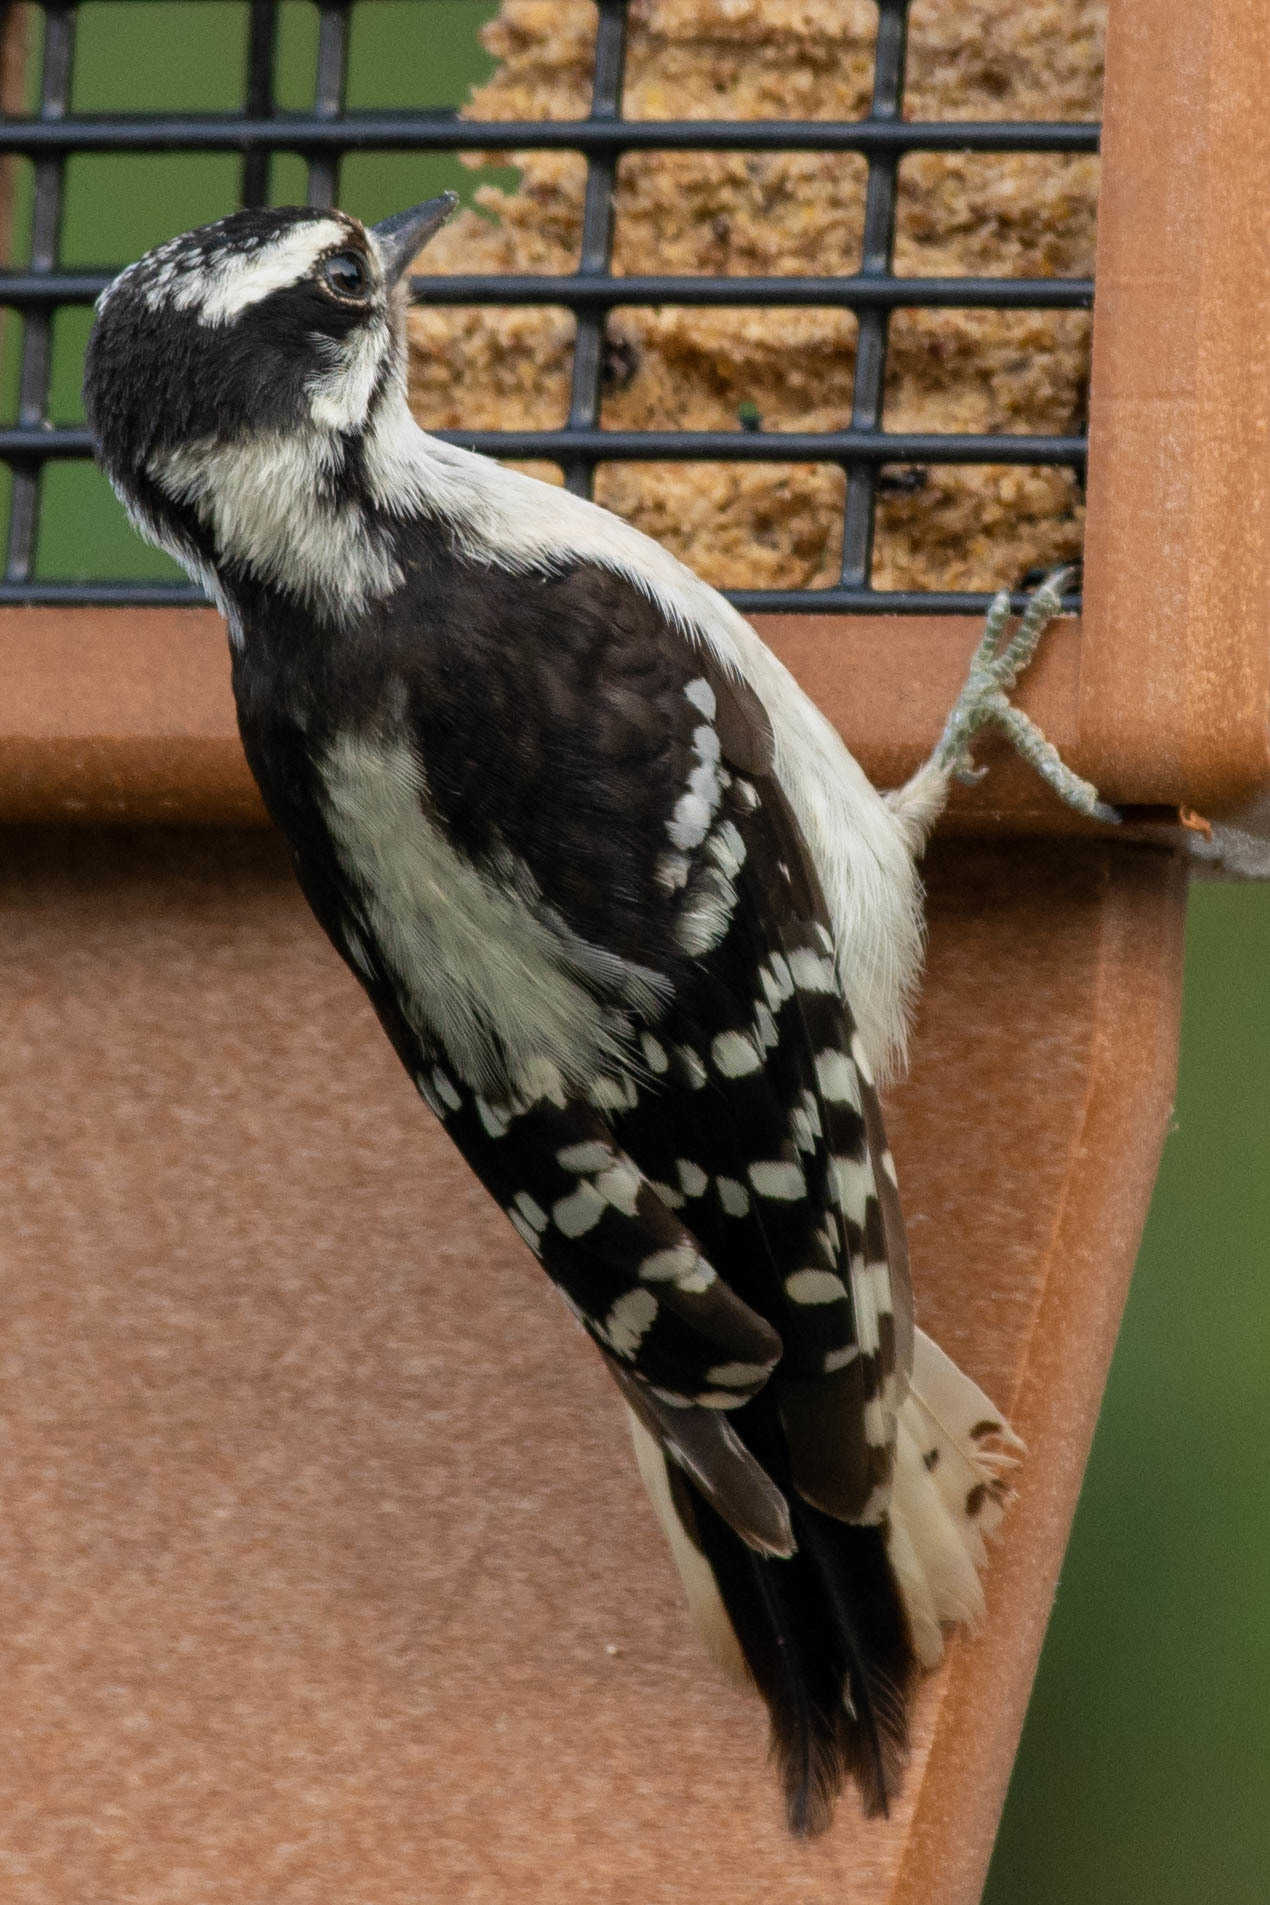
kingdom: Animalia
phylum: Chordata
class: Aves
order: Piciformes
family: Picidae
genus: Dryobates
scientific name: Dryobates pubescens
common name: Downy woodpecker
